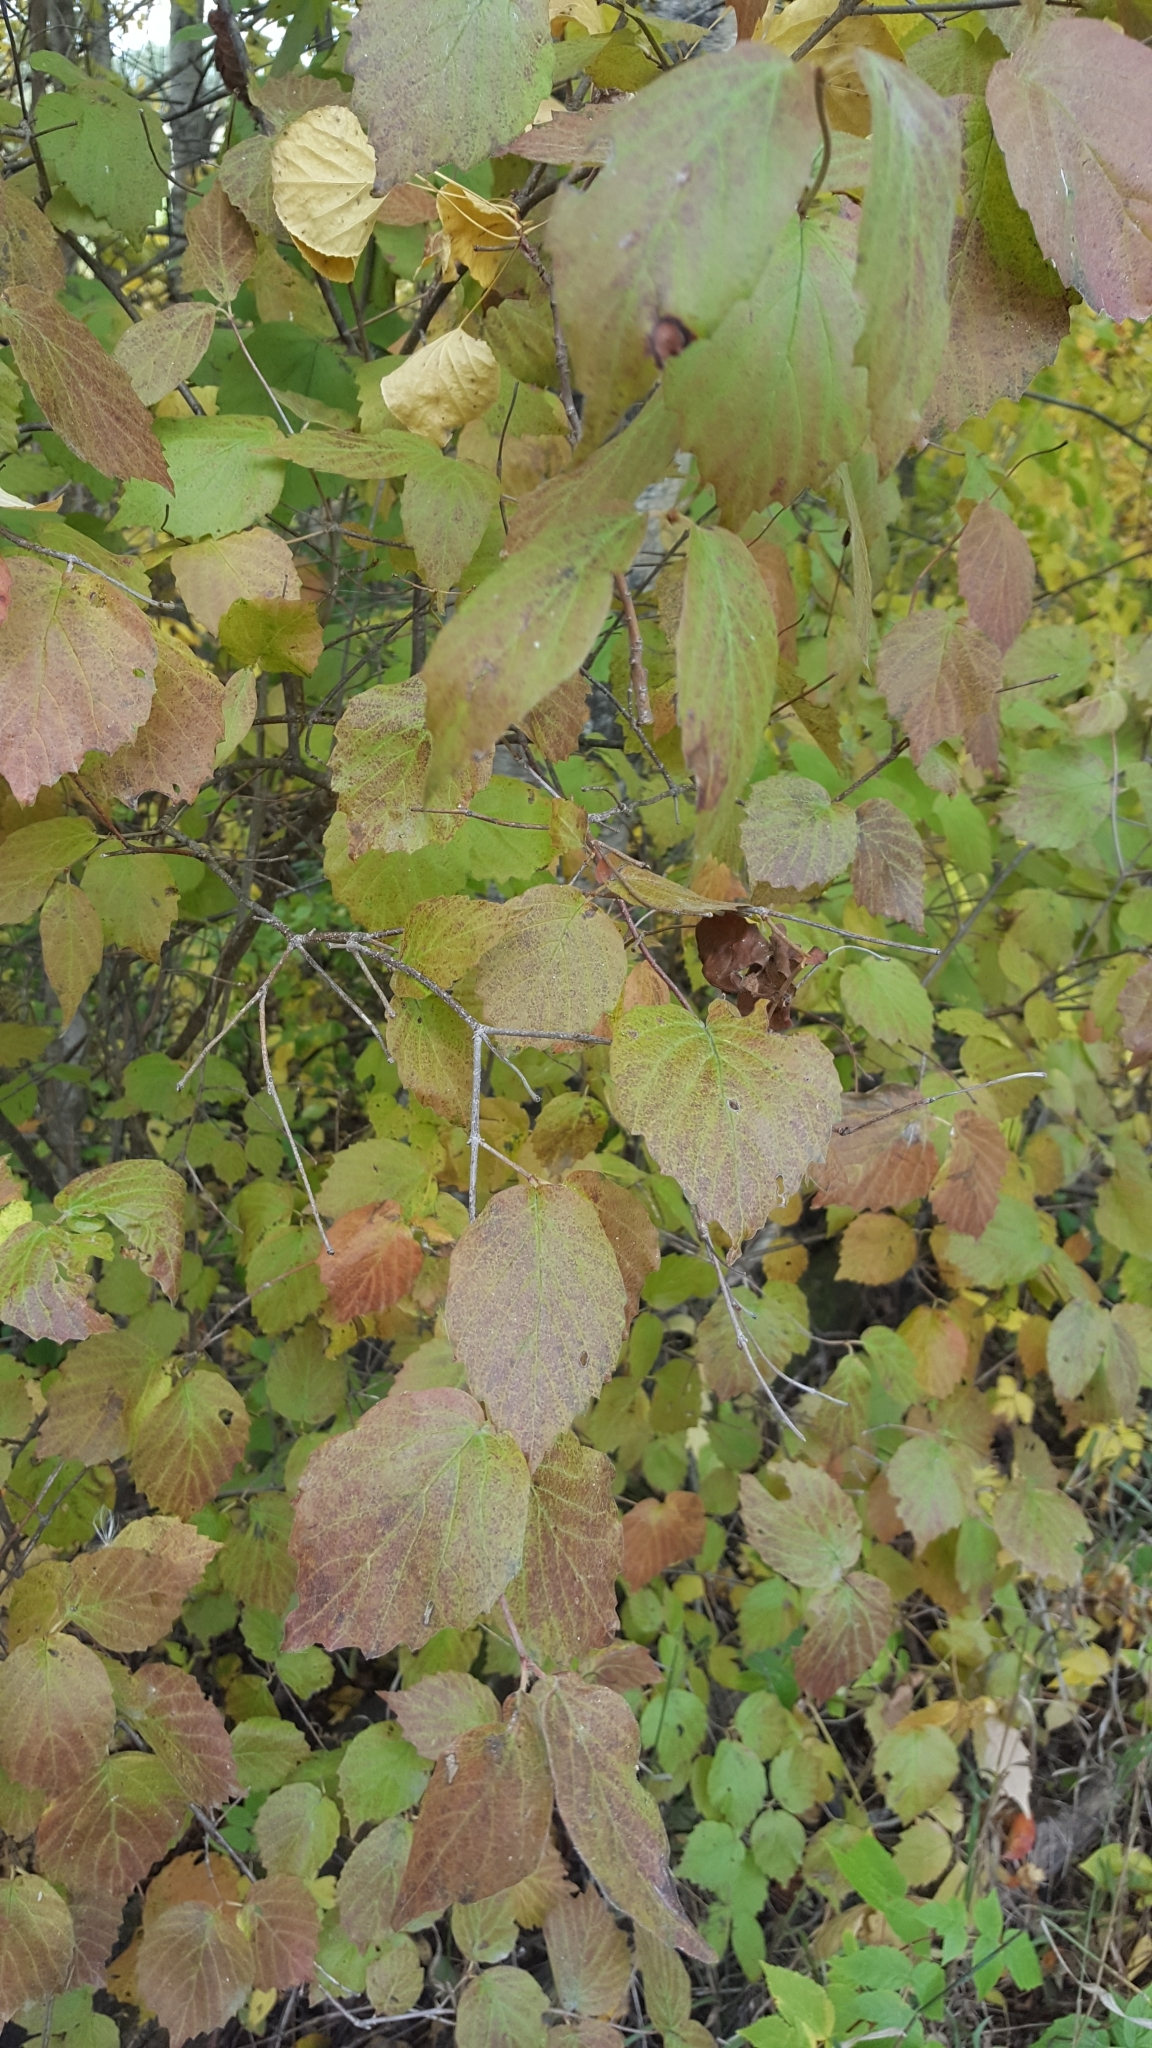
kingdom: Plantae
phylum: Tracheophyta
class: Magnoliopsida
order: Dipsacales
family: Viburnaceae
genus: Viburnum
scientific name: Viburnum rafinesqueanum
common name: Downy arrow-wood
